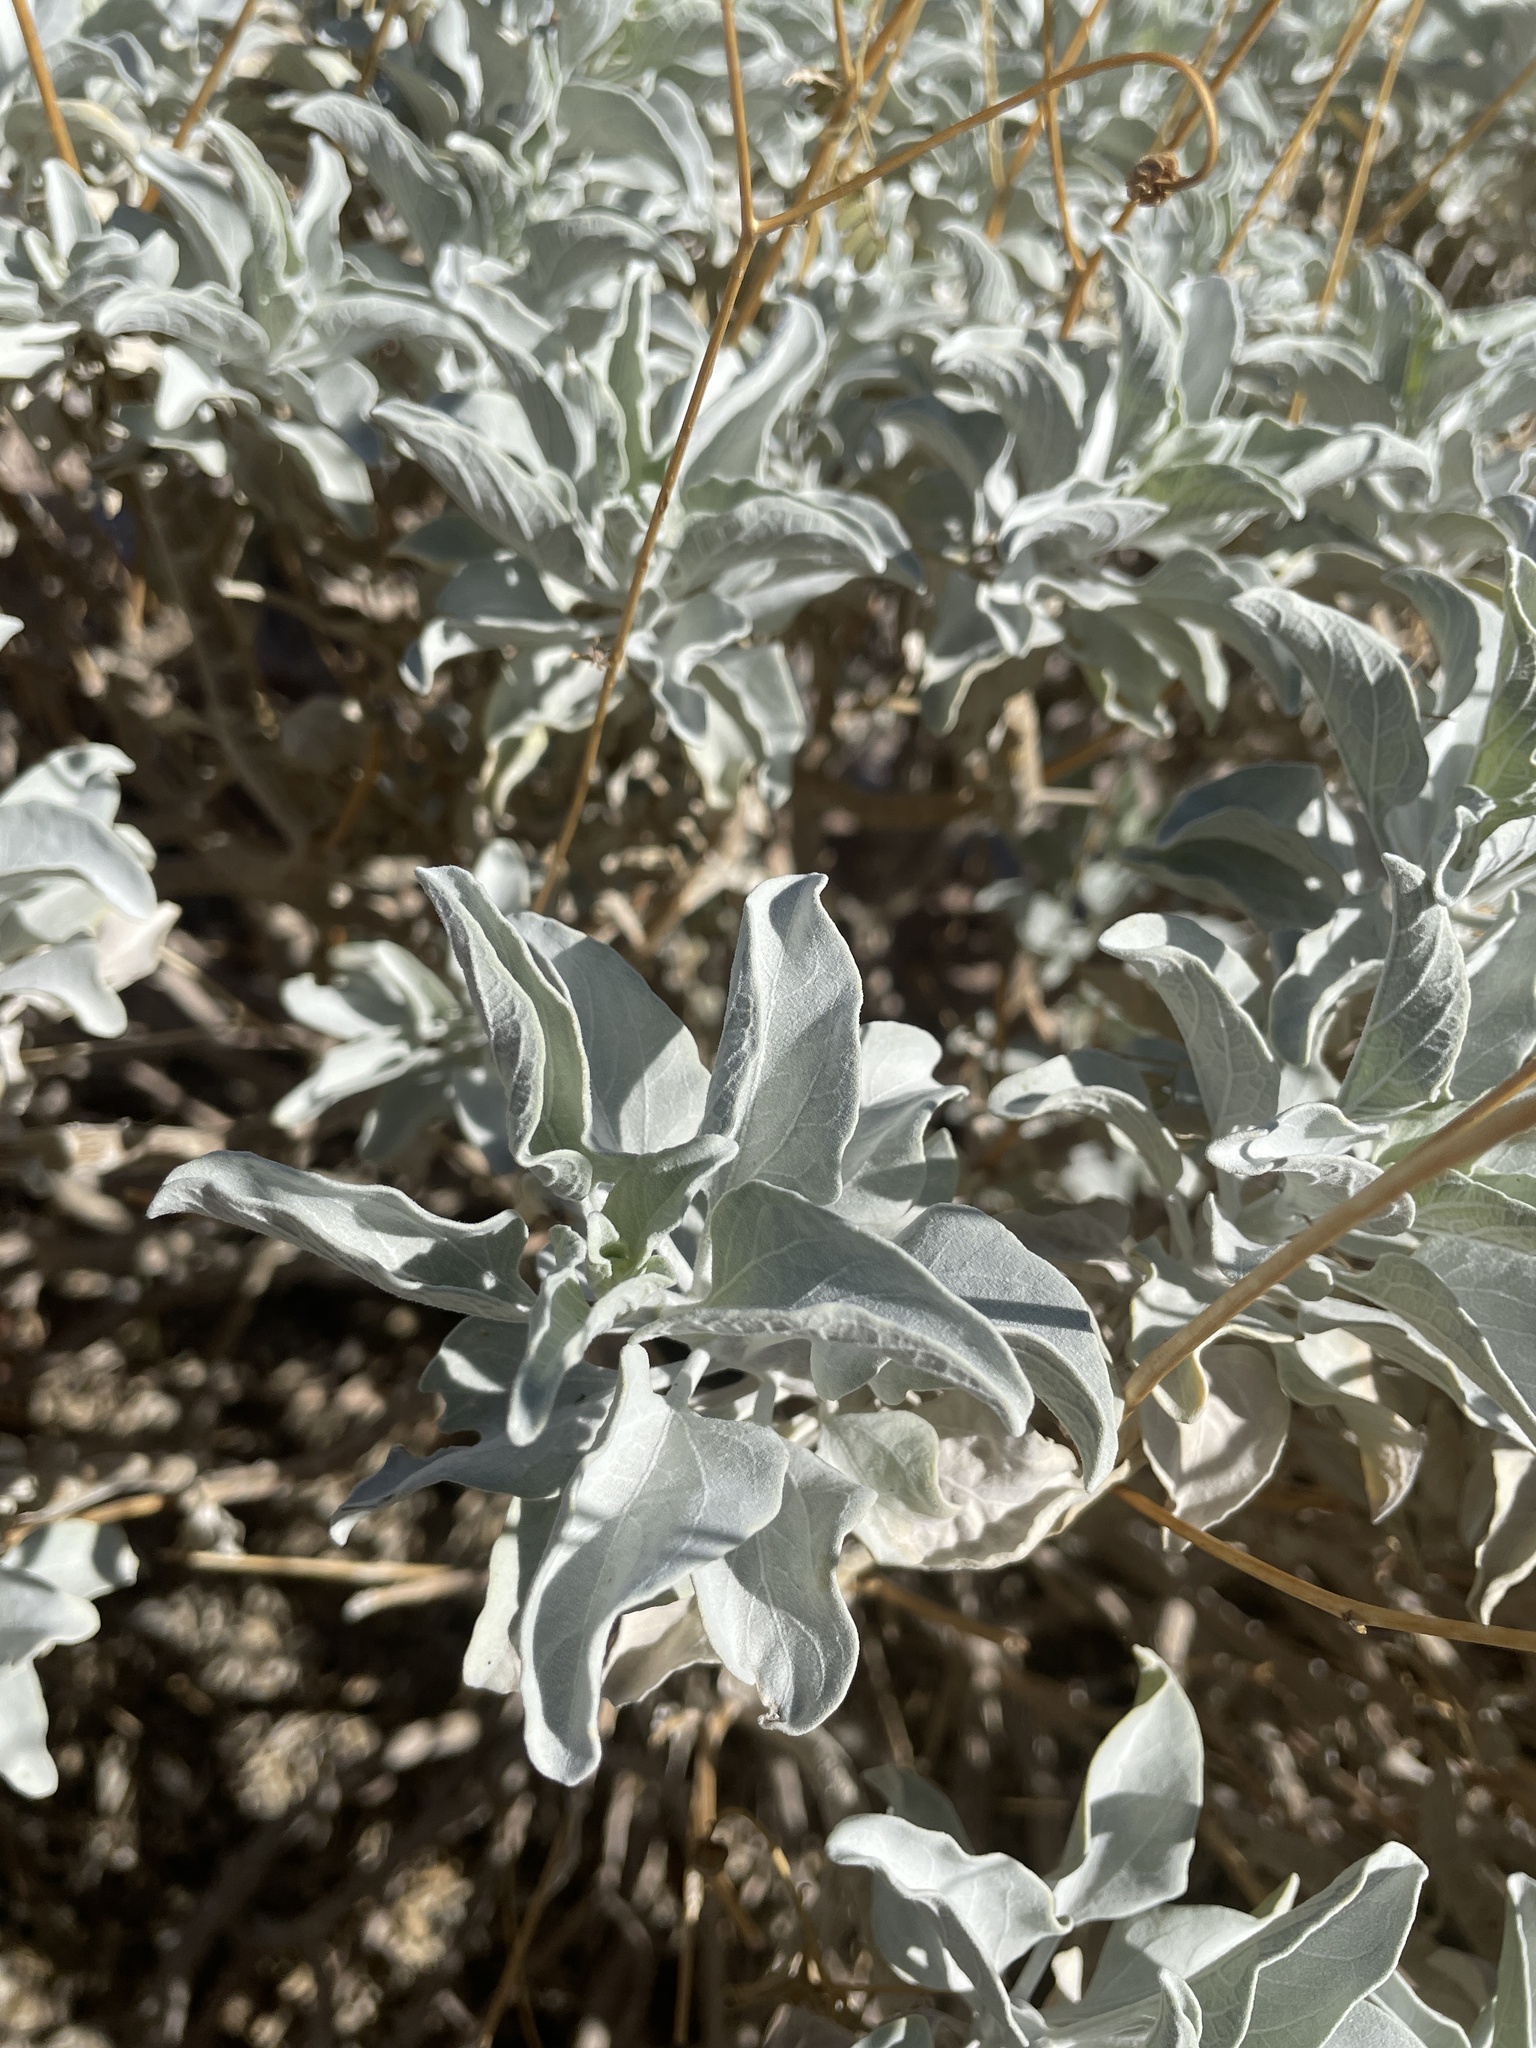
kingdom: Plantae
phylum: Tracheophyta
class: Magnoliopsida
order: Asterales
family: Asteraceae
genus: Encelia
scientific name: Encelia farinosa
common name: Brittlebush
